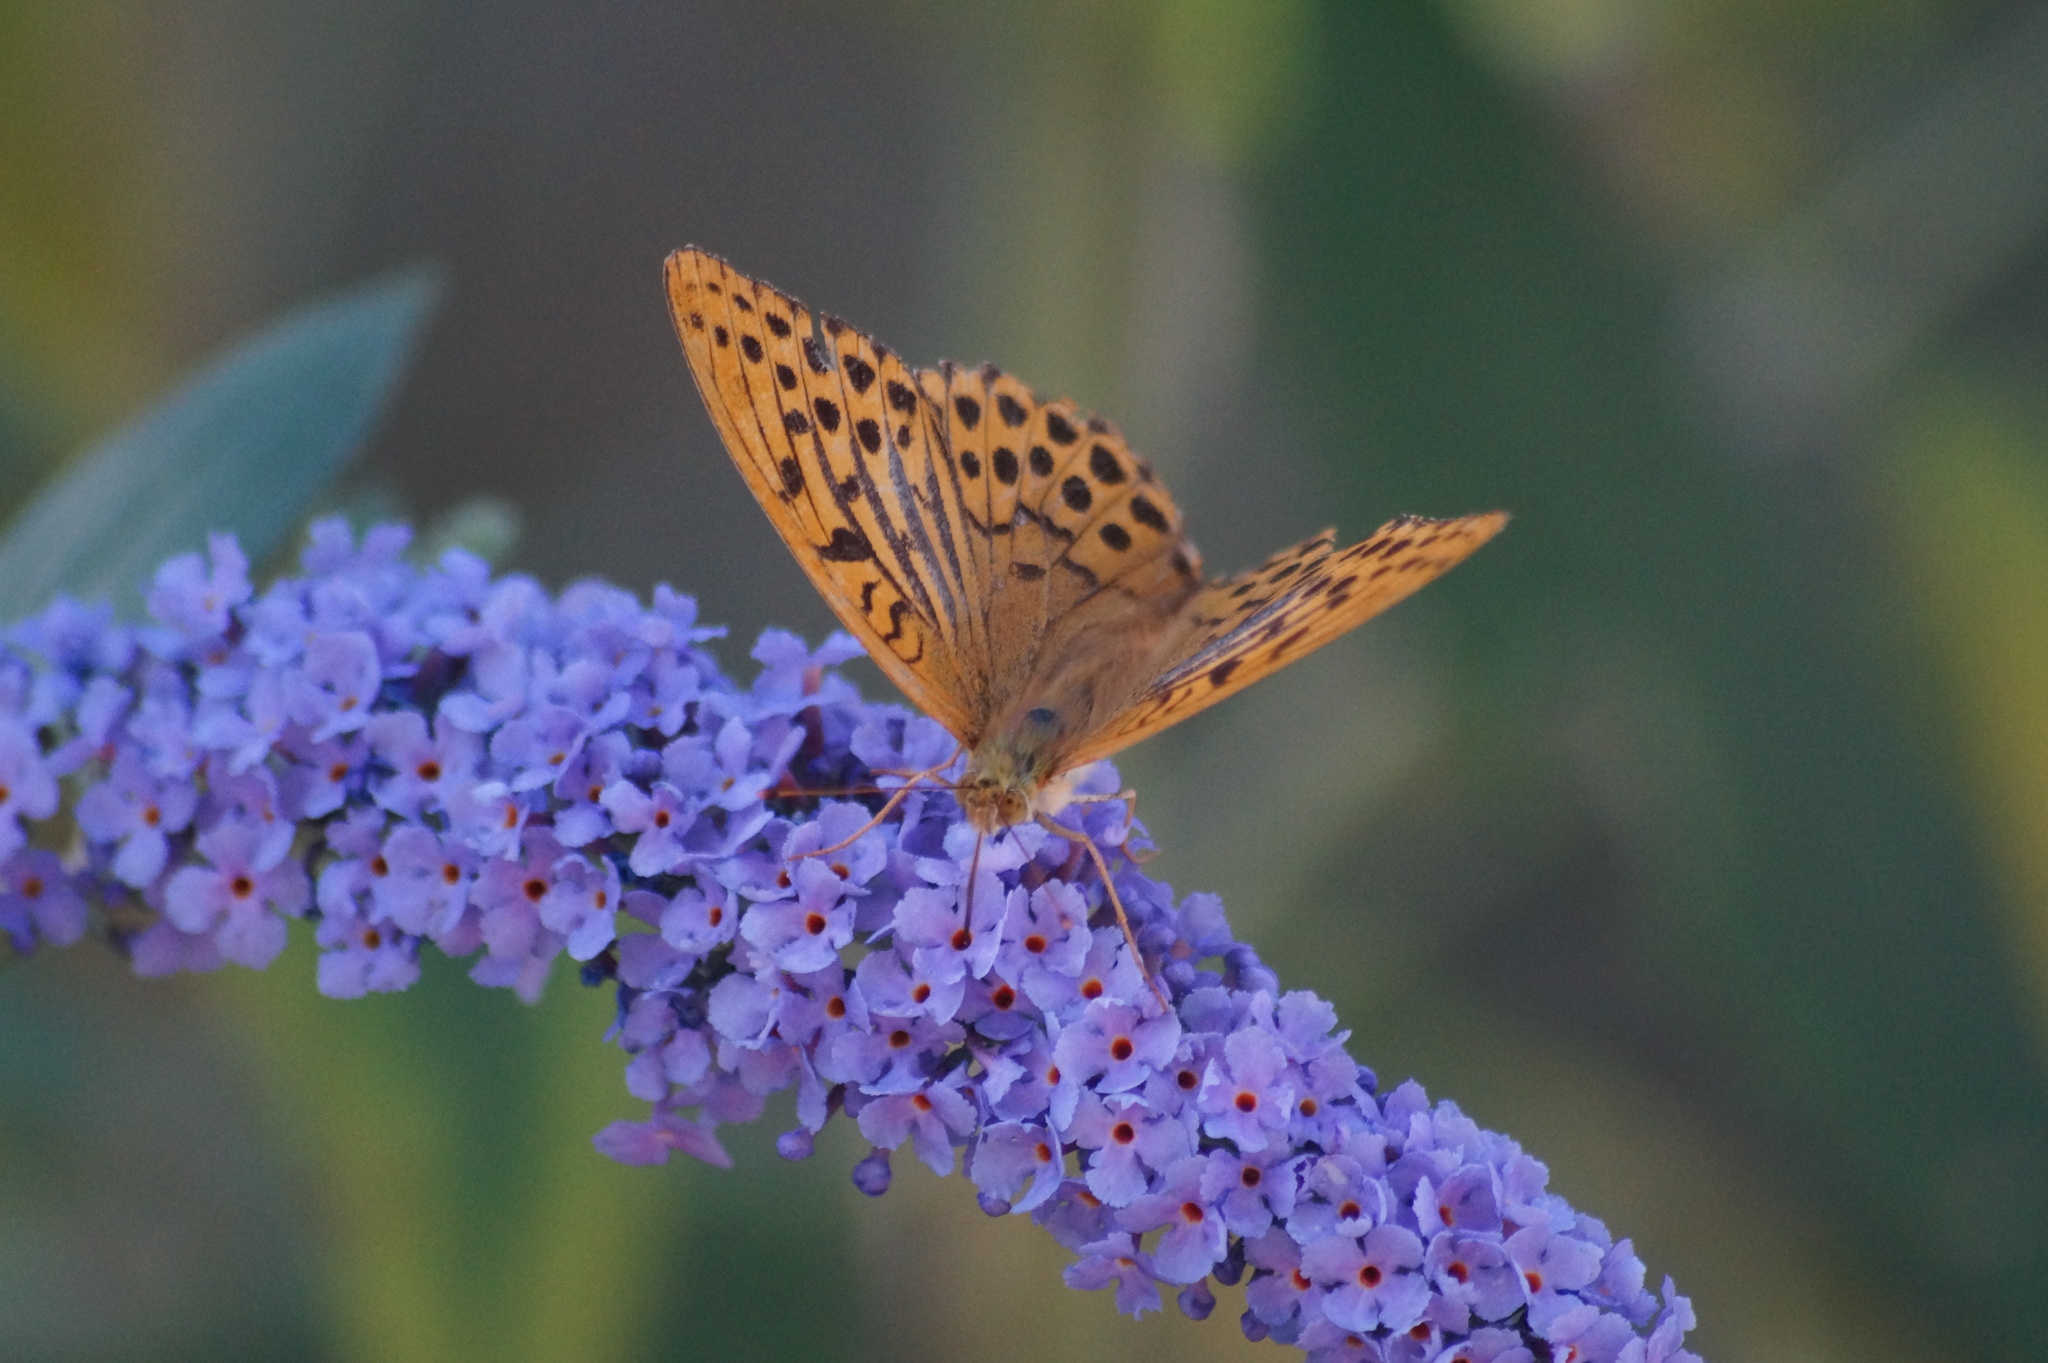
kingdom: Animalia
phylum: Arthropoda
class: Insecta
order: Lepidoptera
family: Nymphalidae
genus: Argynnis
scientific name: Argynnis paphia
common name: Silver-washed fritillary
